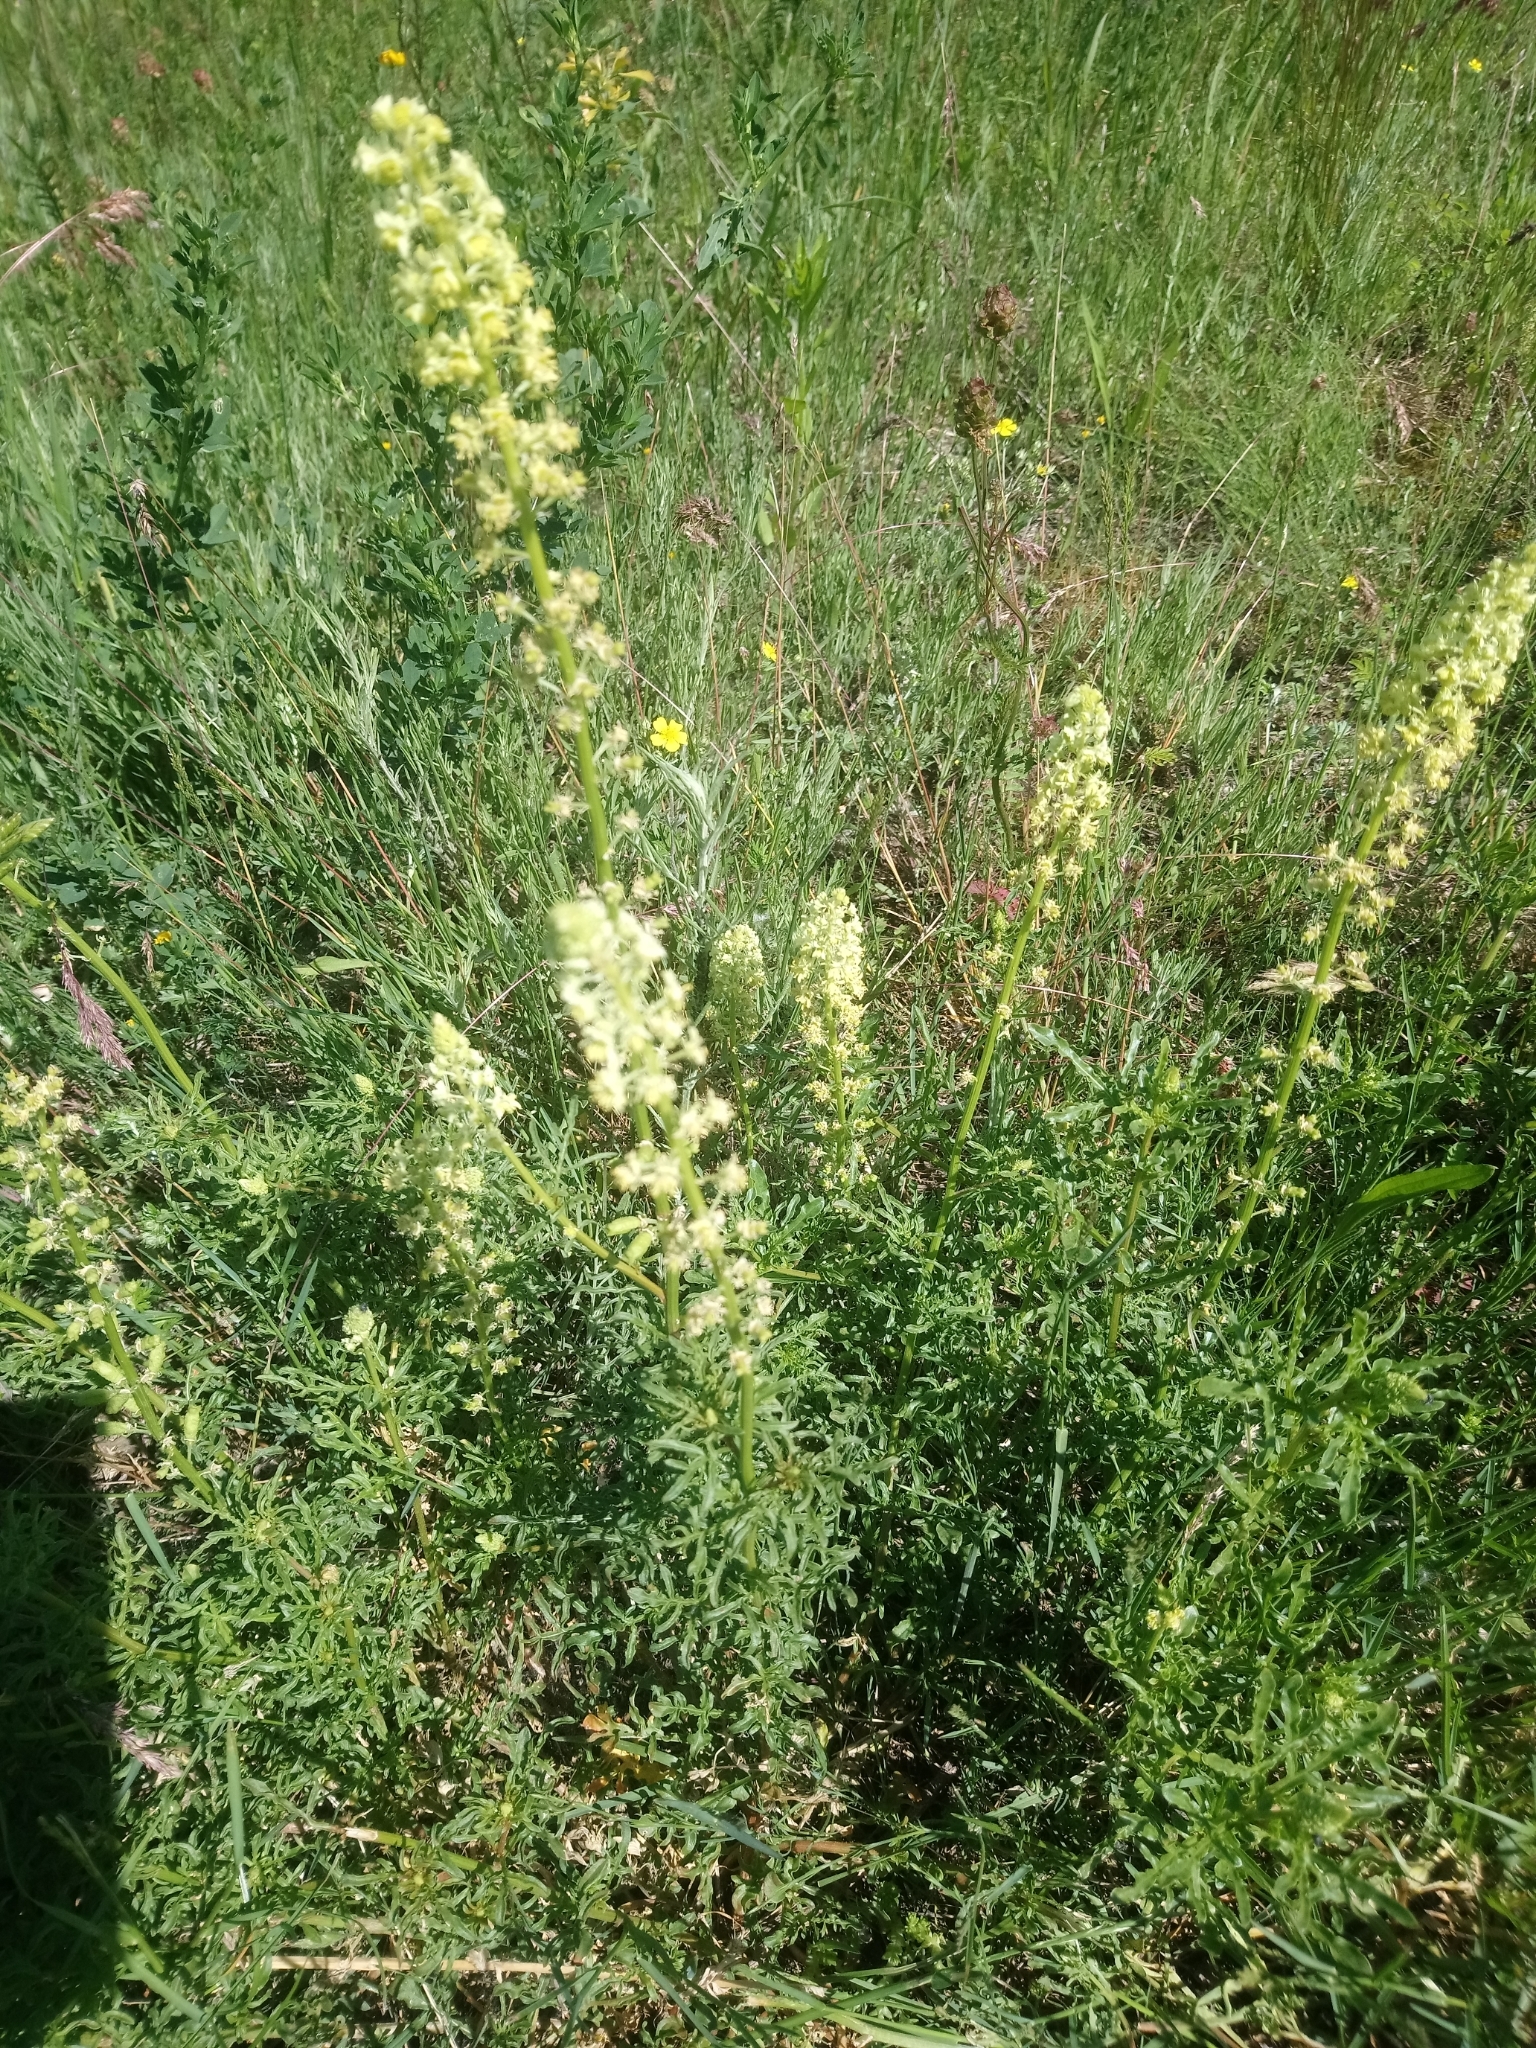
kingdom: Plantae
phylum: Tracheophyta
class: Magnoliopsida
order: Brassicales
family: Resedaceae
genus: Reseda
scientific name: Reseda lutea
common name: Wild mignonette
